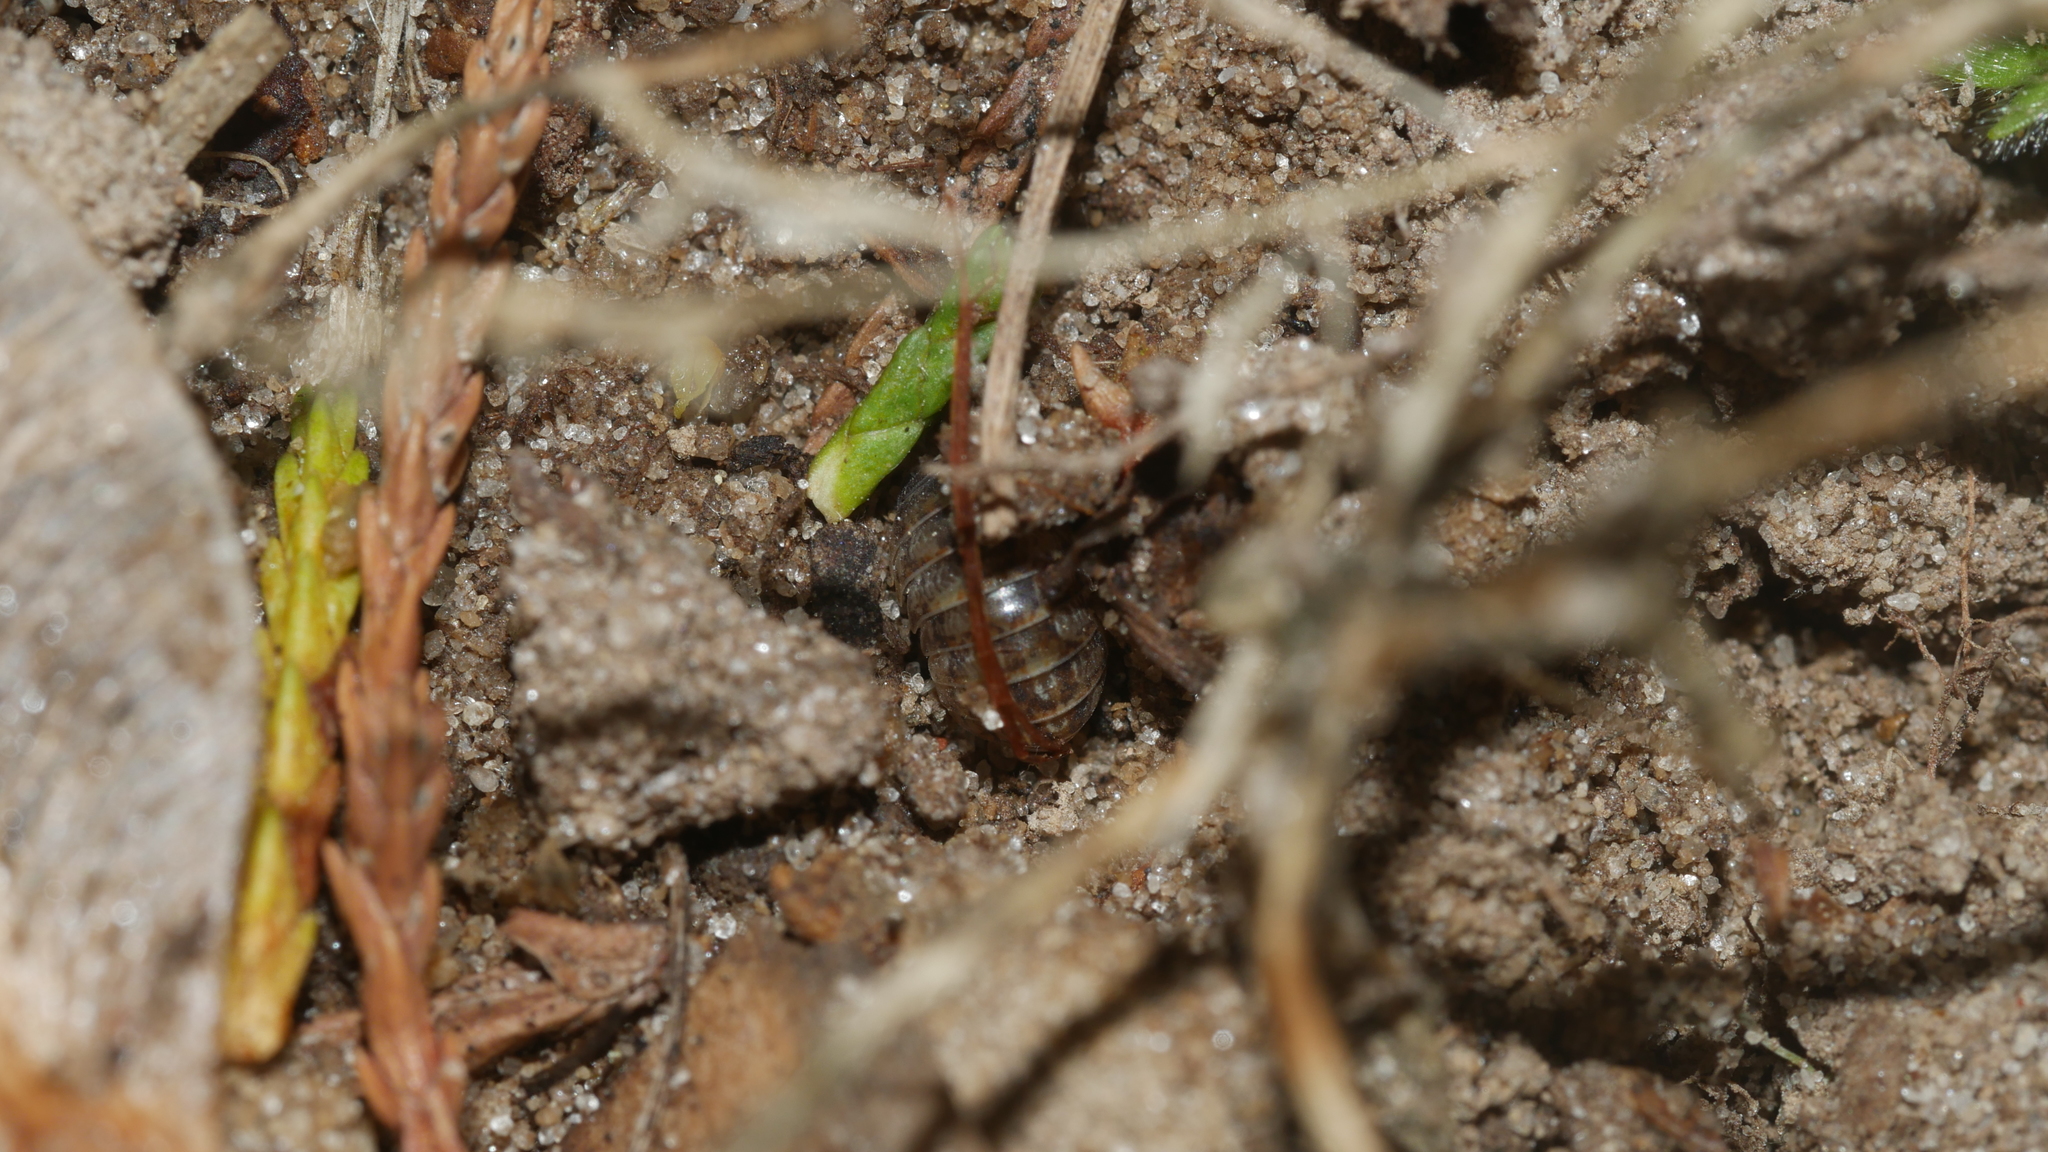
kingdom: Animalia
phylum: Arthropoda
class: Malacostraca
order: Isopoda
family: Armadillidiidae
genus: Armadillidium
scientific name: Armadillidium vulgare
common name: Common pill woodlouse
